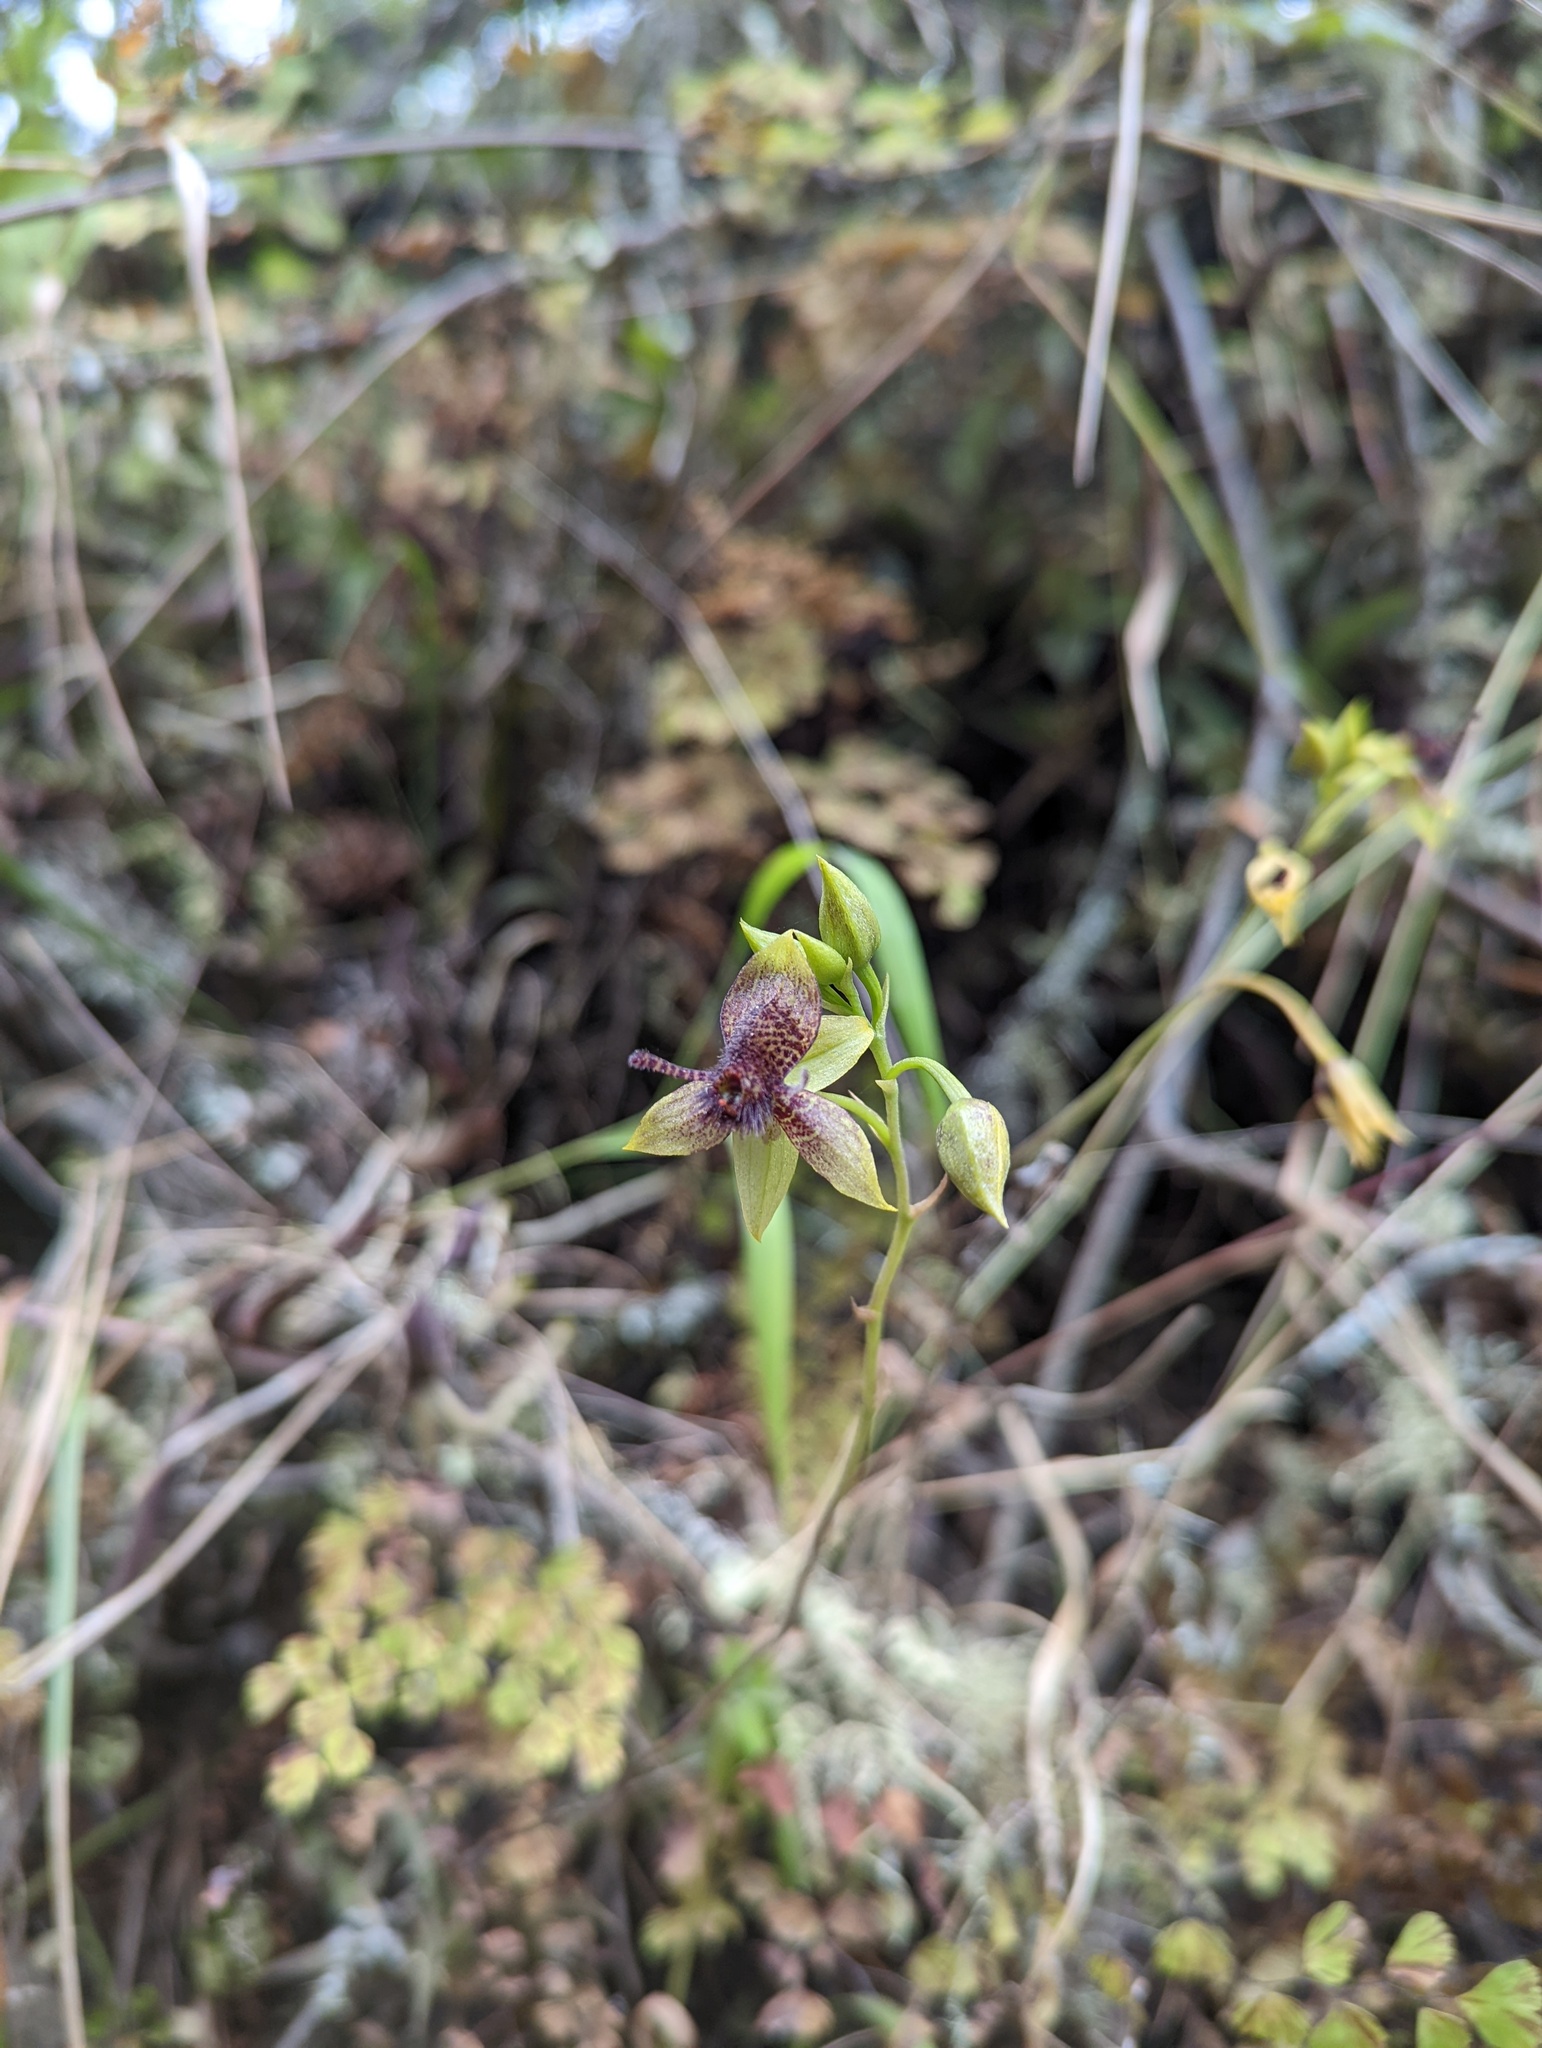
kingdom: Plantae
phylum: Tracheophyta
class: Liliopsida
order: Asparagales
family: Orchidaceae
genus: Trichoceros
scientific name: Trichoceros antennifer
